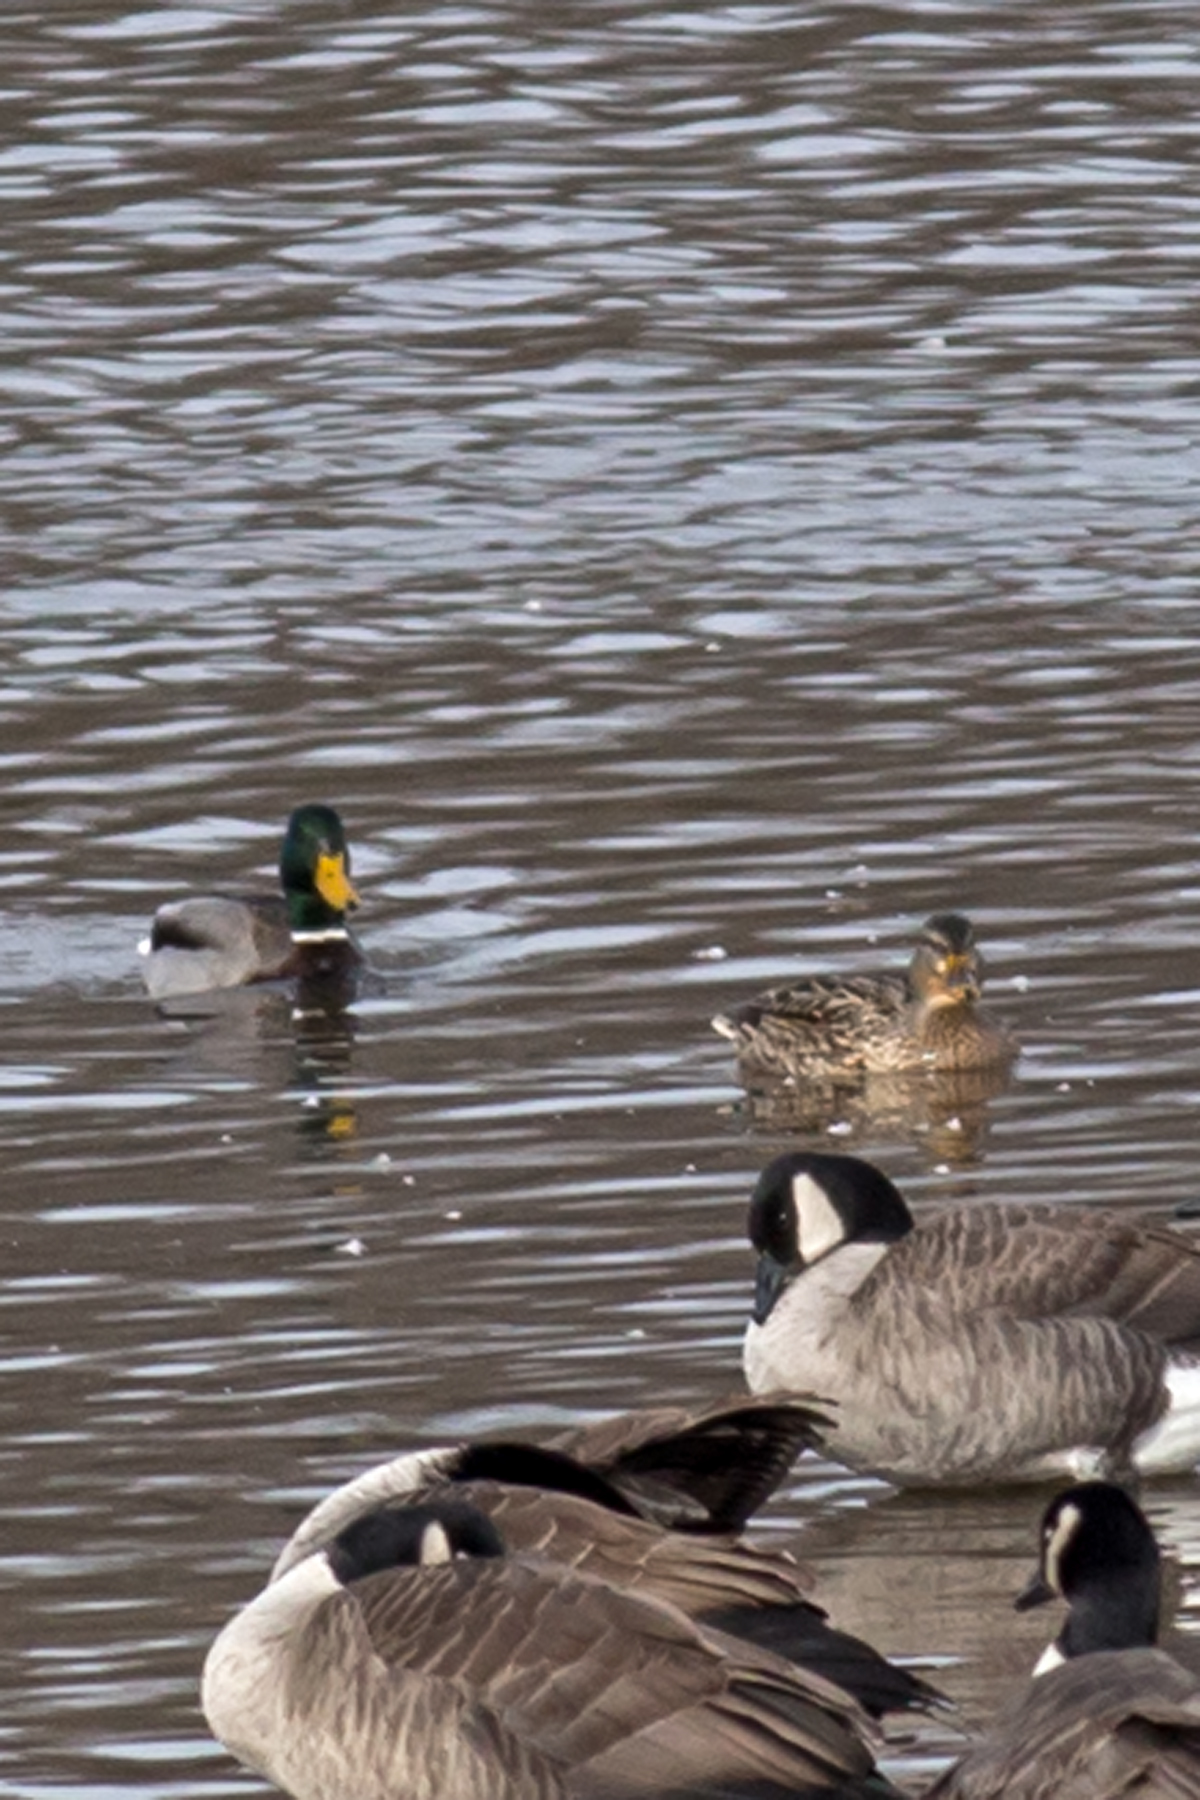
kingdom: Animalia
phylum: Chordata
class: Aves
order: Anseriformes
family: Anatidae
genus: Anas
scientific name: Anas platyrhynchos
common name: Mallard
